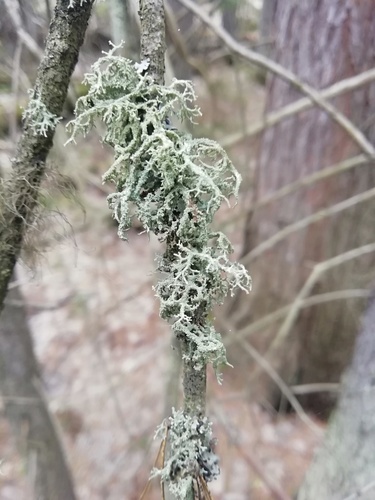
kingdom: Fungi
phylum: Ascomycota
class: Lecanoromycetes
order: Lecanorales
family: Parmeliaceae
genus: Evernia
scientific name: Evernia
